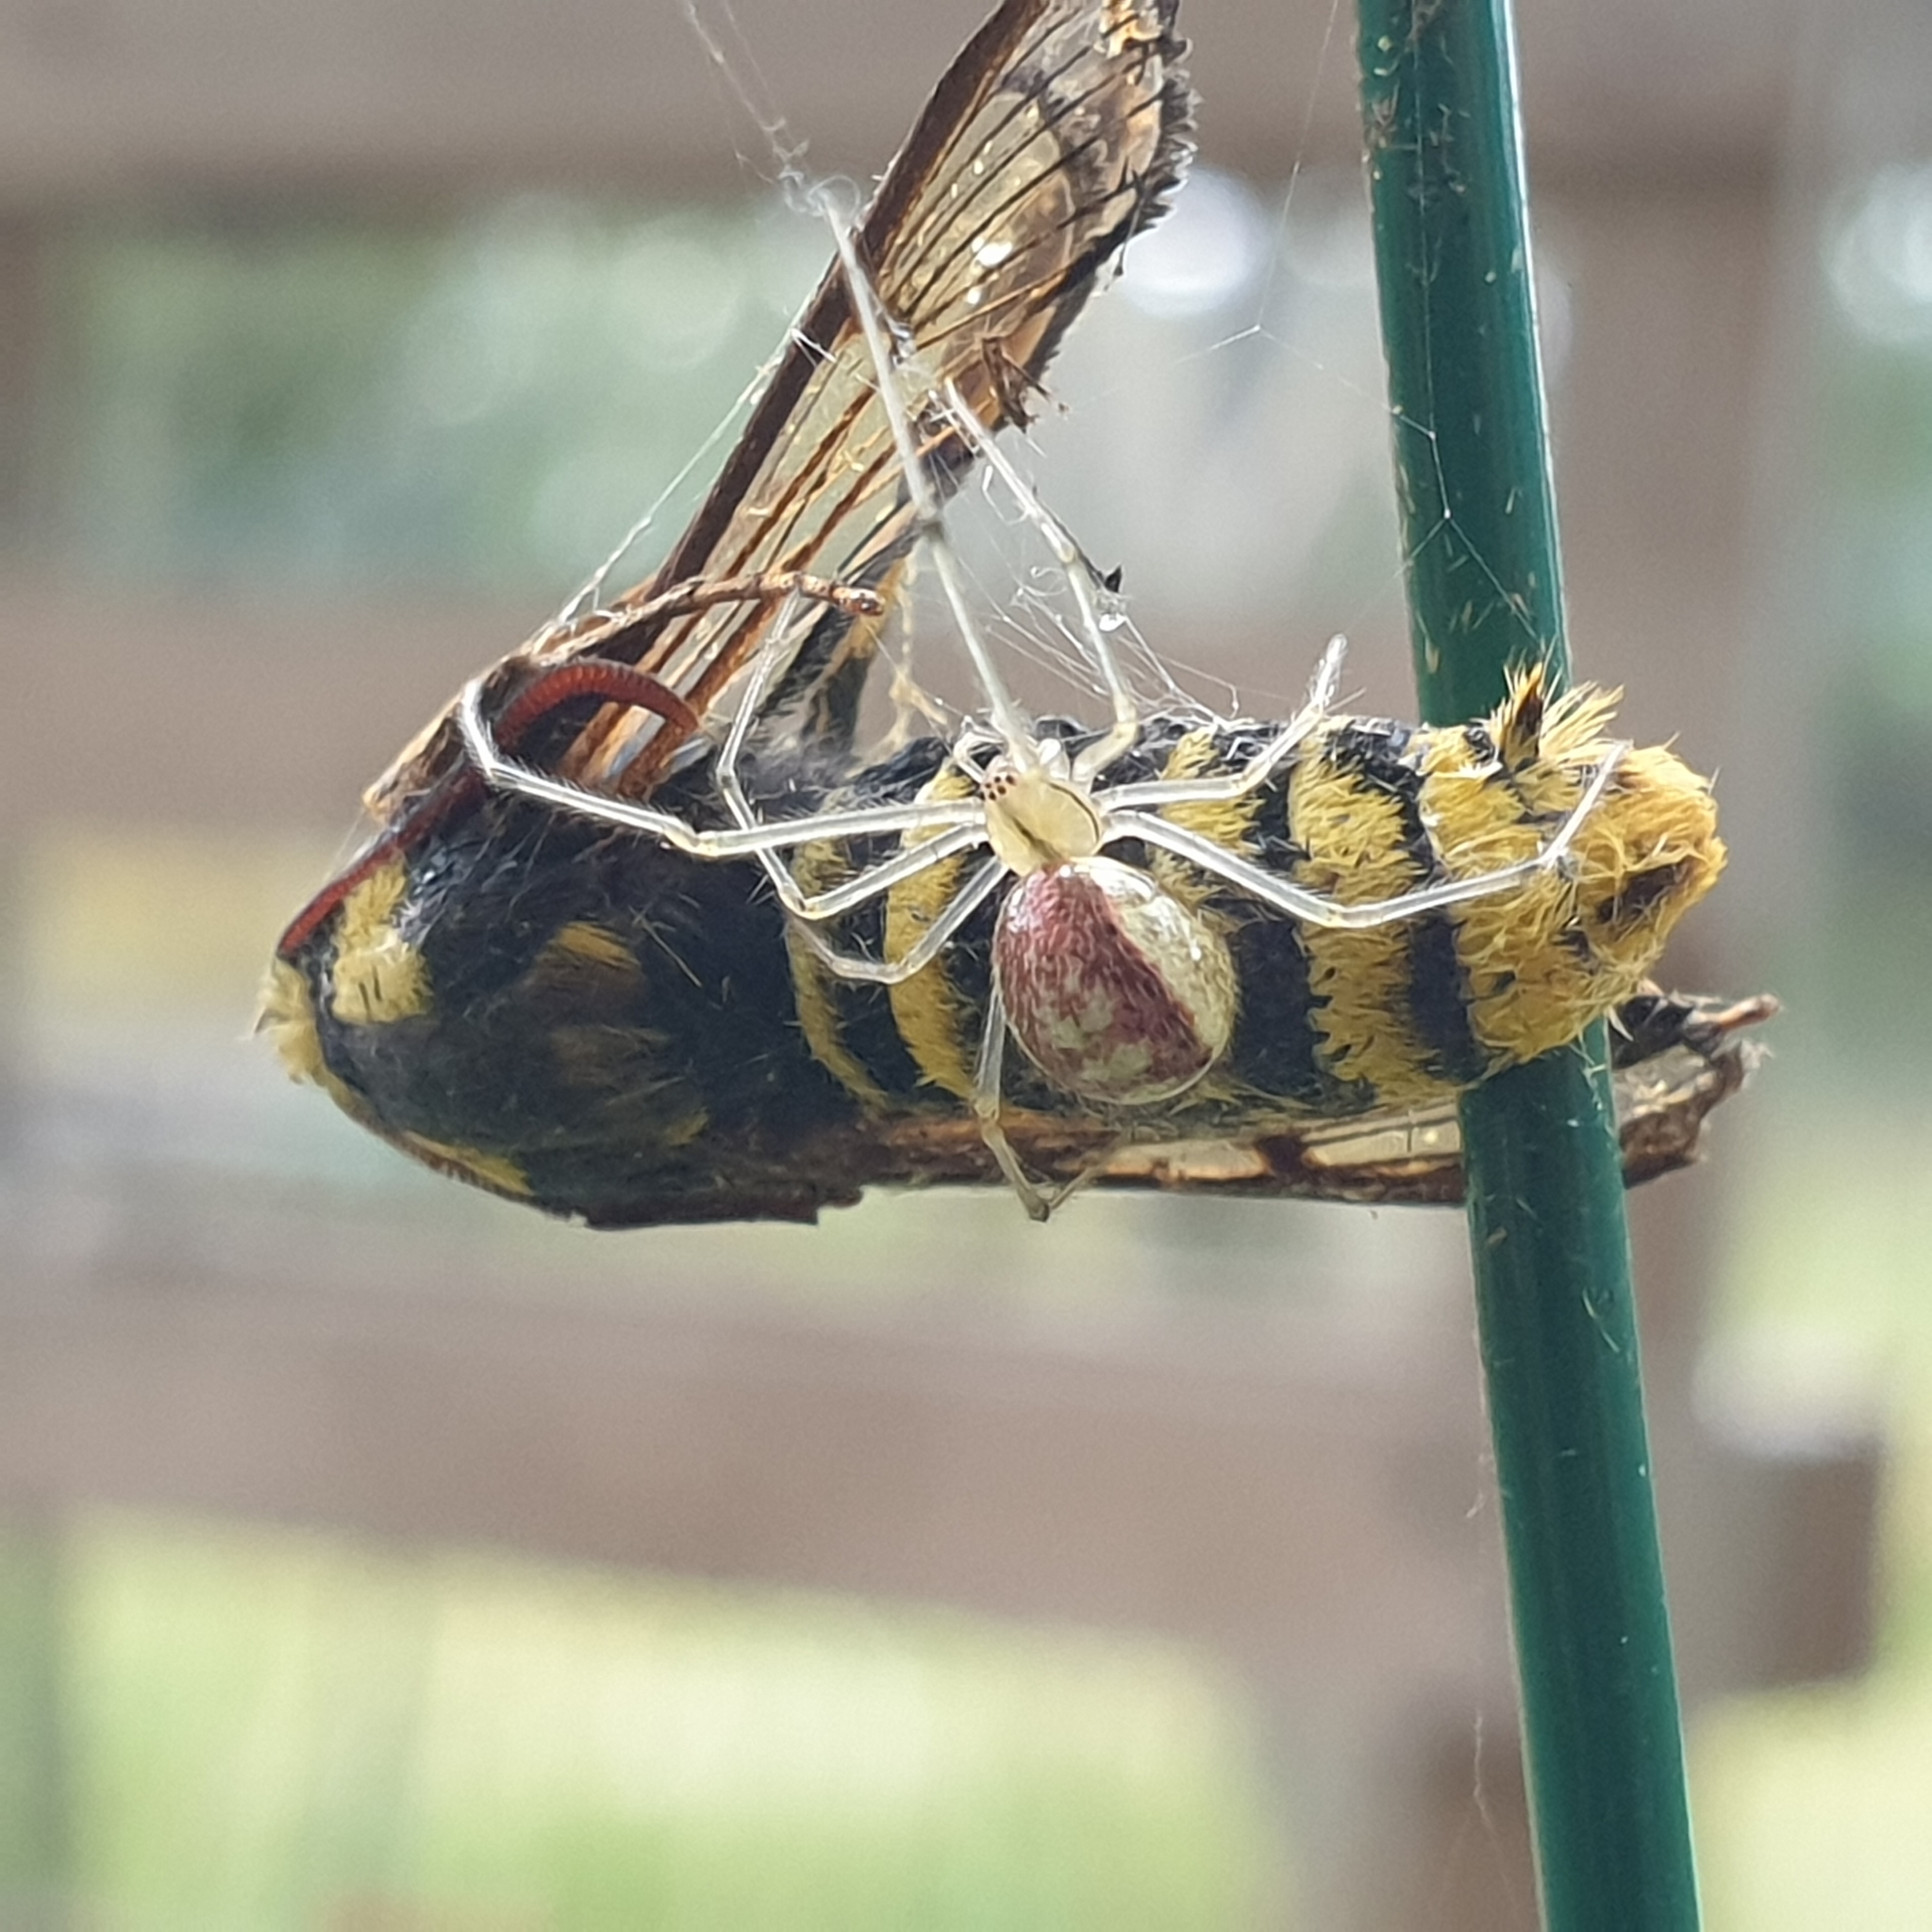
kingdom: Animalia
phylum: Arthropoda
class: Arachnida
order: Araneae
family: Theridiidae
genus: Enoplognatha
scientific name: Enoplognatha ovata
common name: Common candy-striped spider
